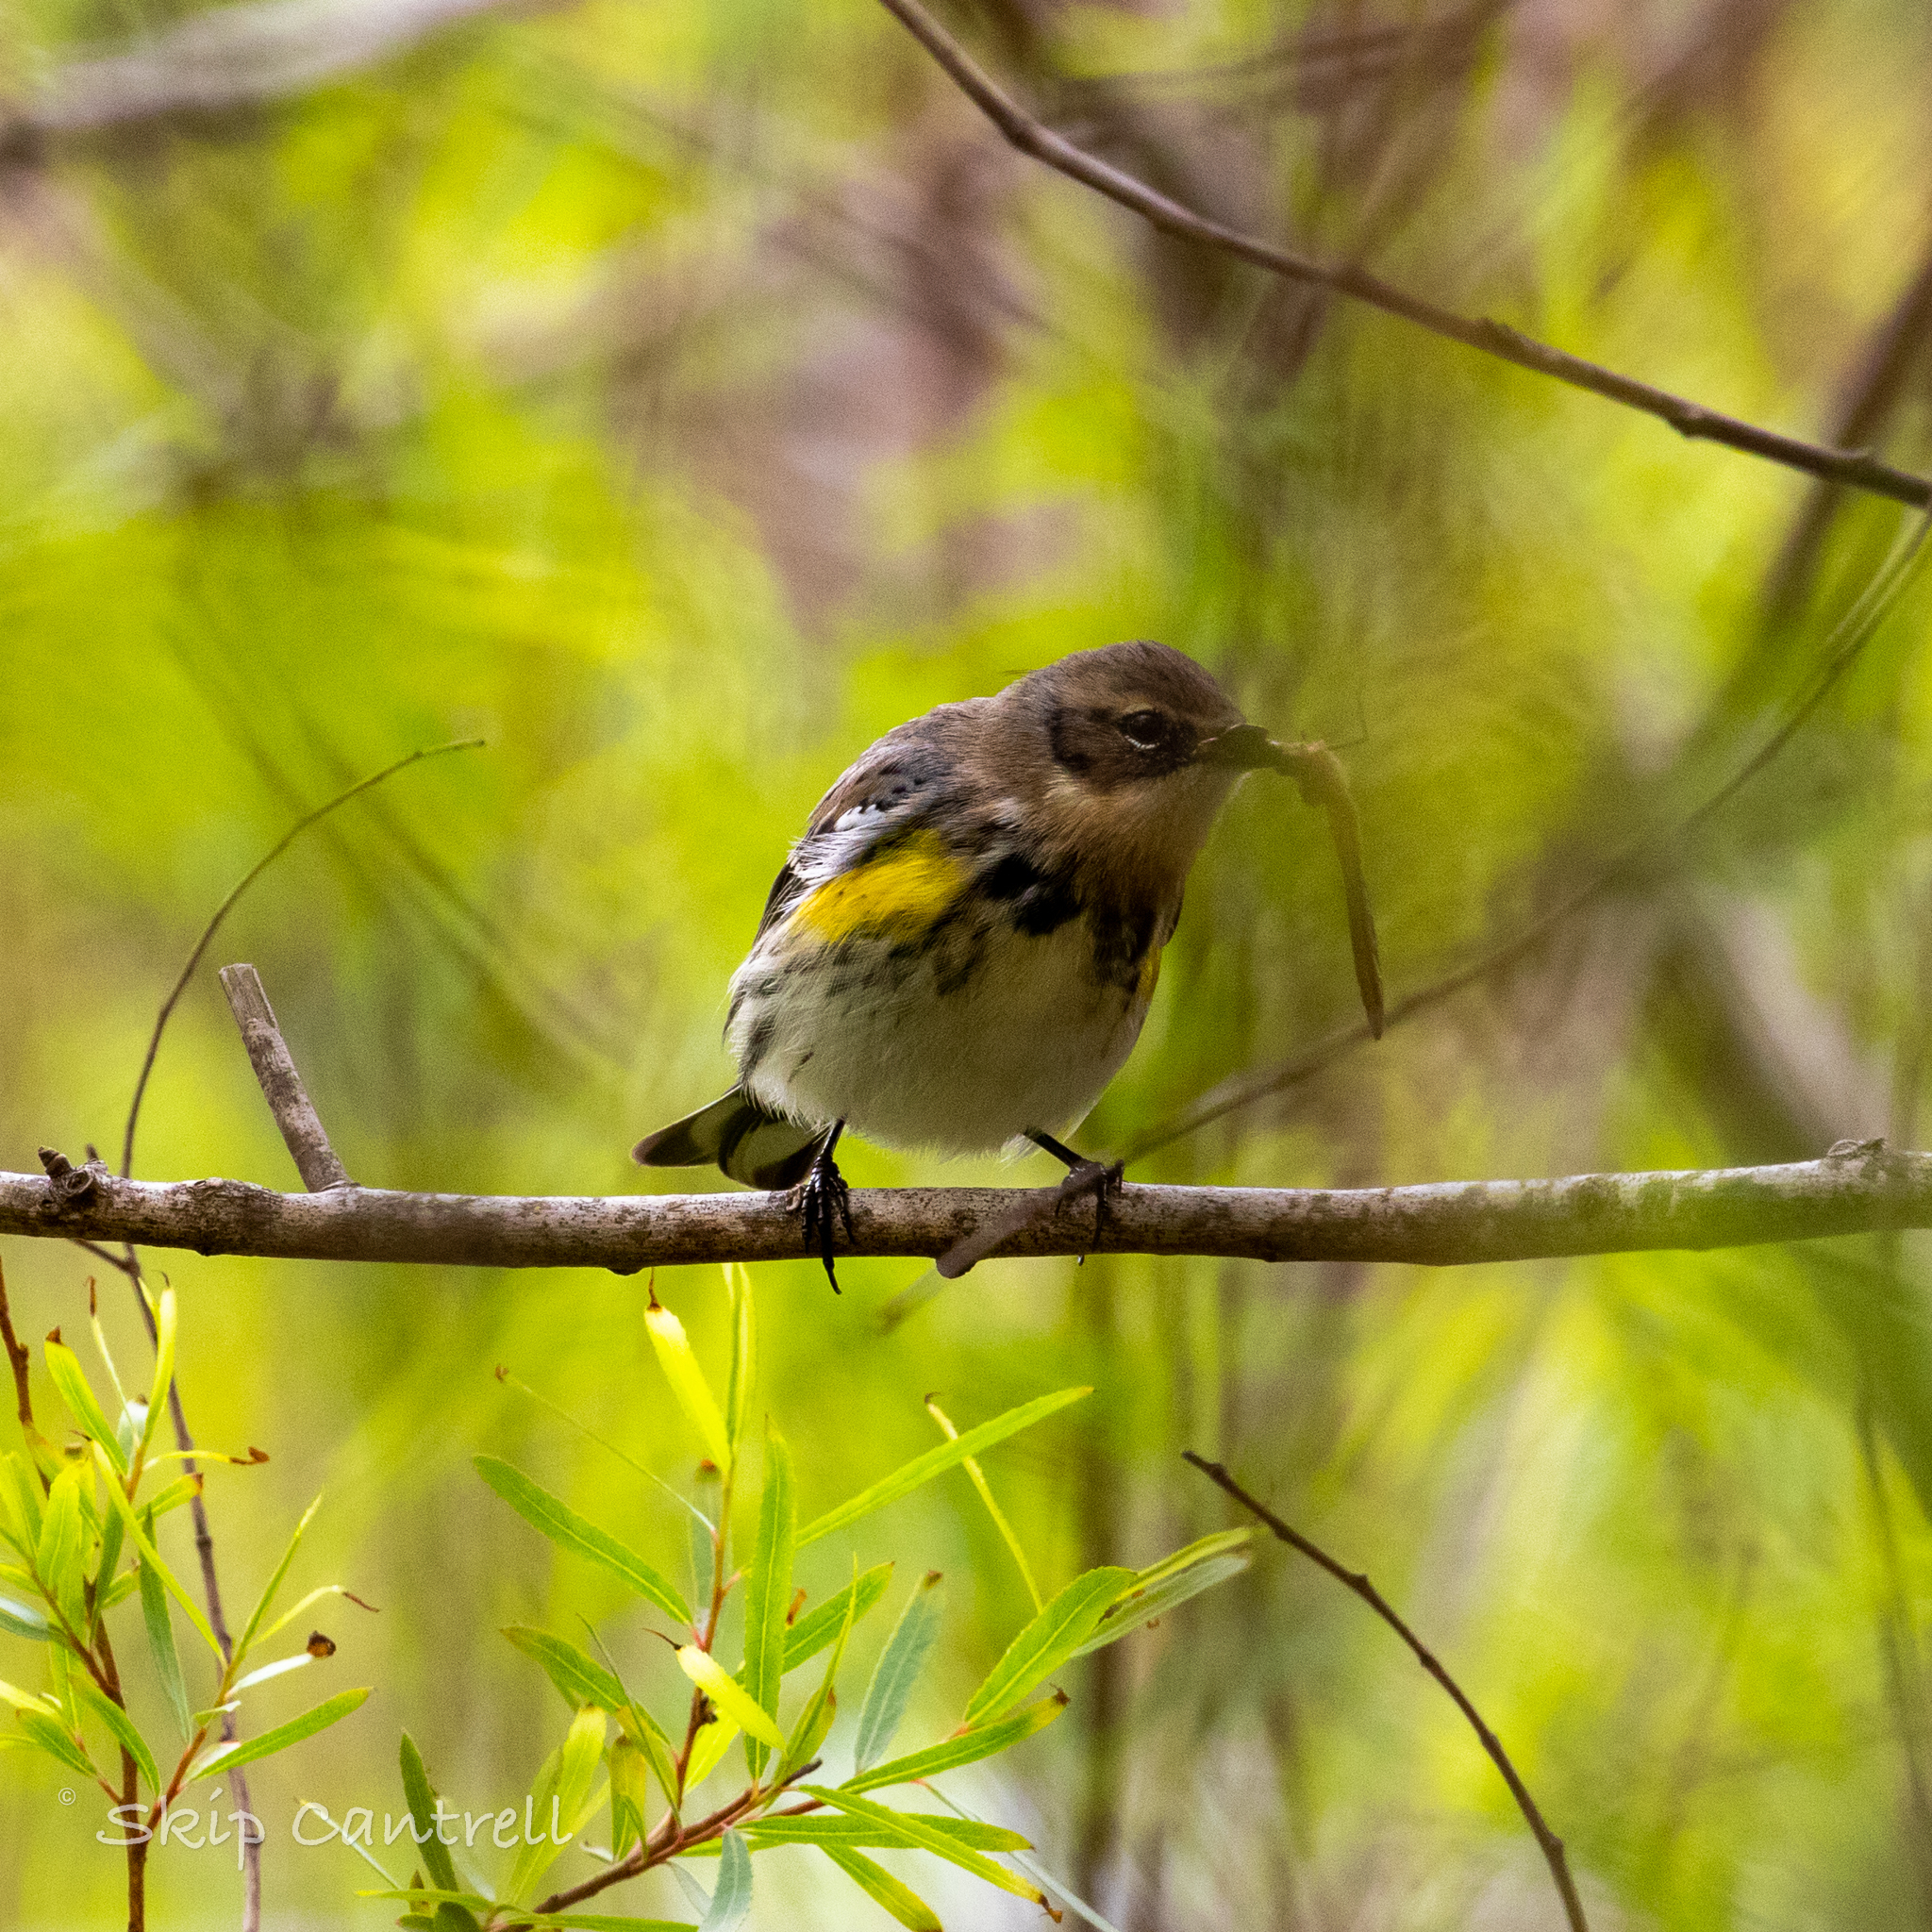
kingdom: Animalia
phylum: Chordata
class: Aves
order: Passeriformes
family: Parulidae
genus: Setophaga
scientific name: Setophaga coronata
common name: Myrtle warbler
